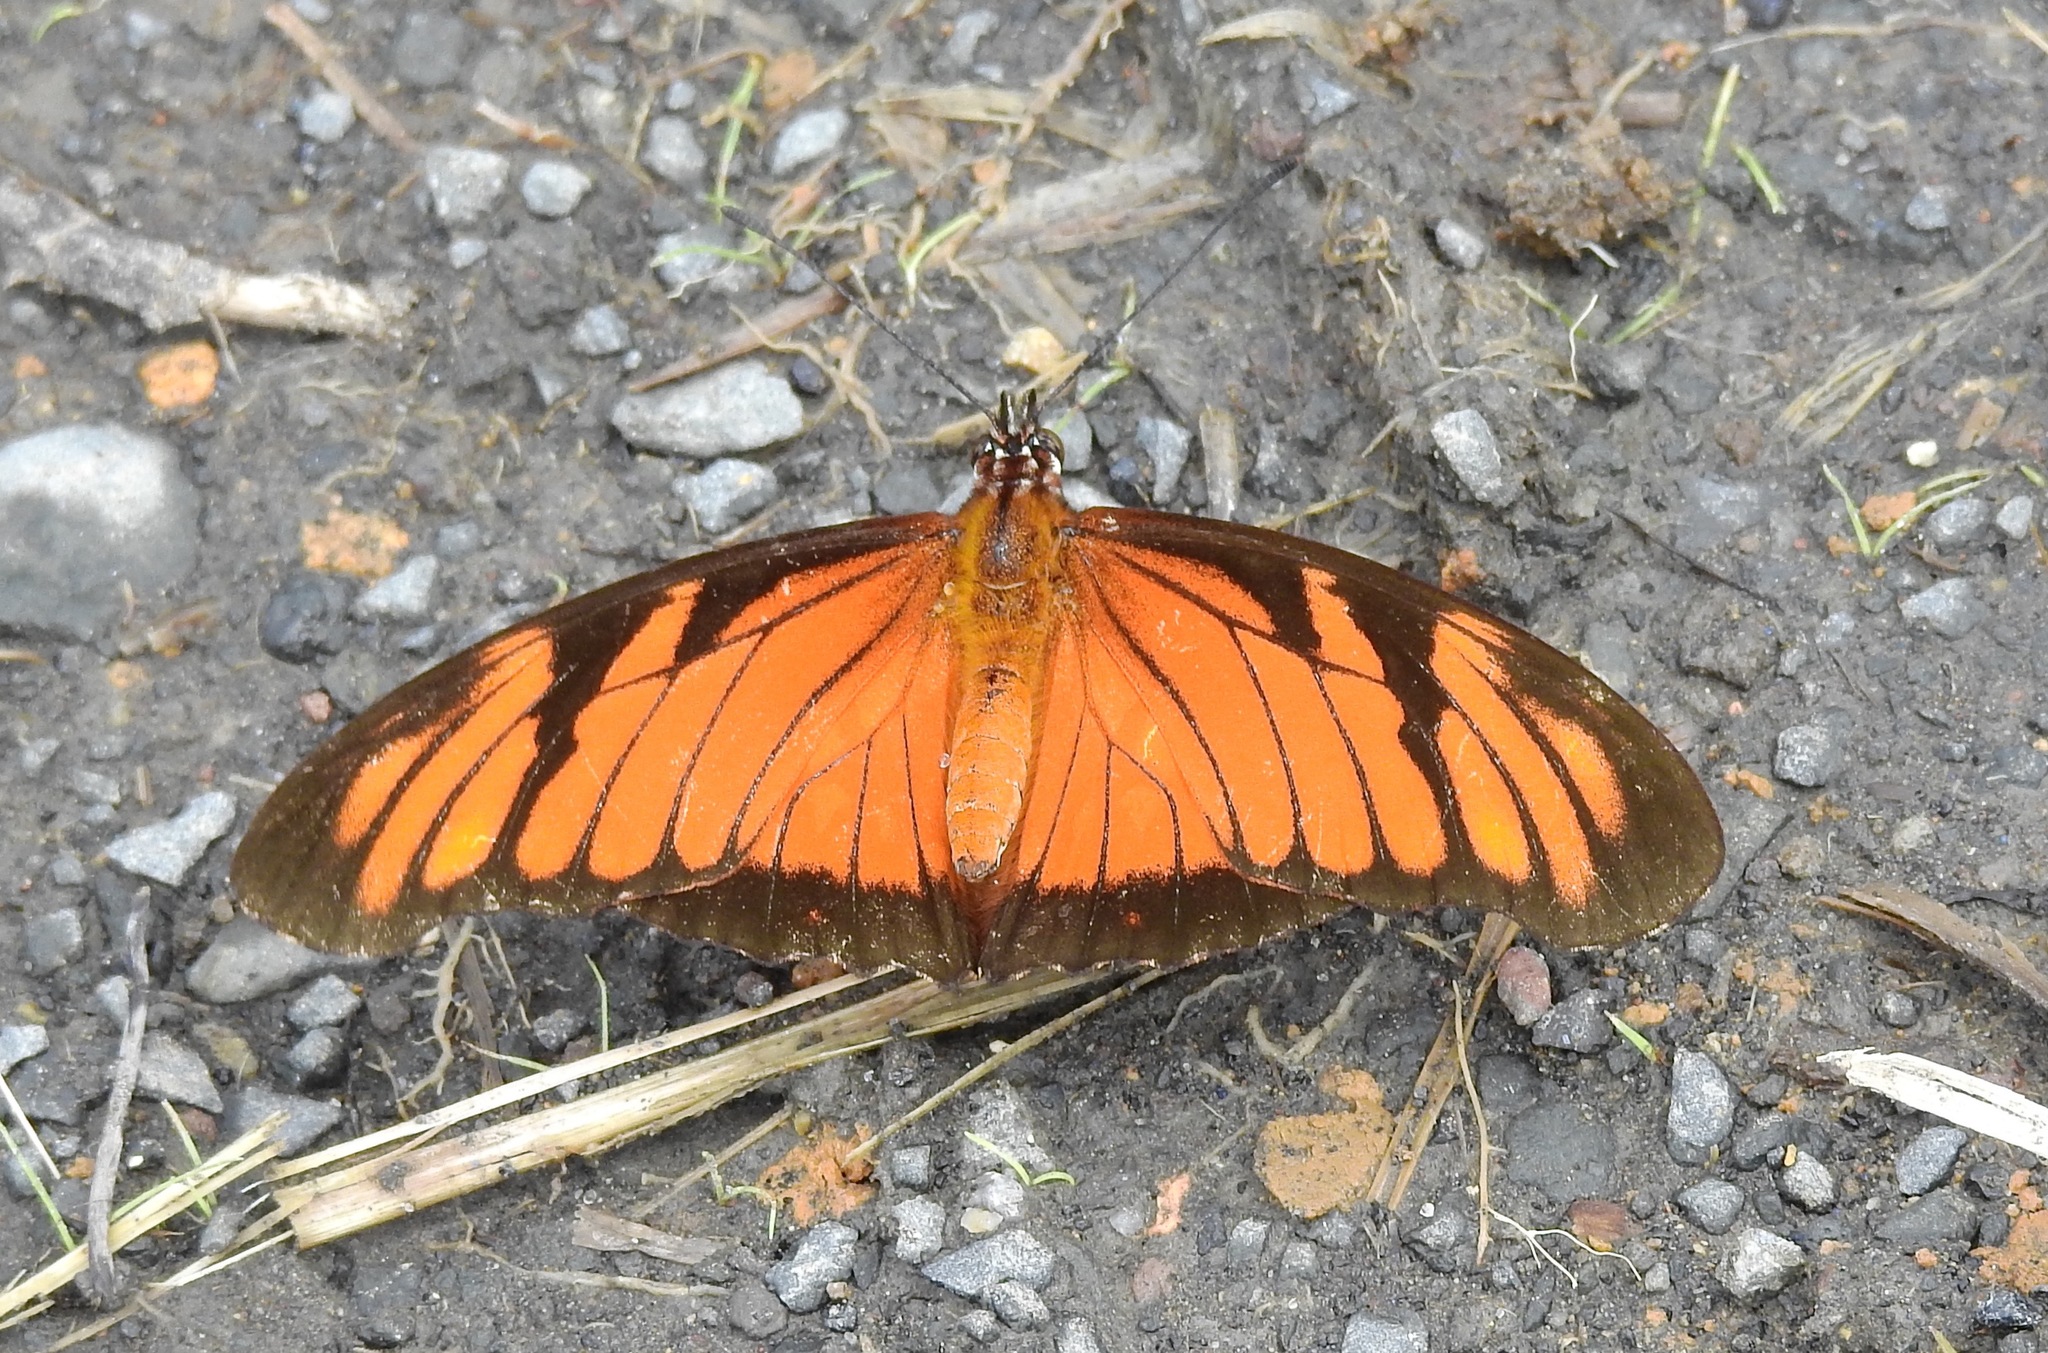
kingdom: Animalia
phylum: Arthropoda
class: Insecta
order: Lepidoptera
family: Nymphalidae
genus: Dione
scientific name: Dione juno
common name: Juno silverspot
